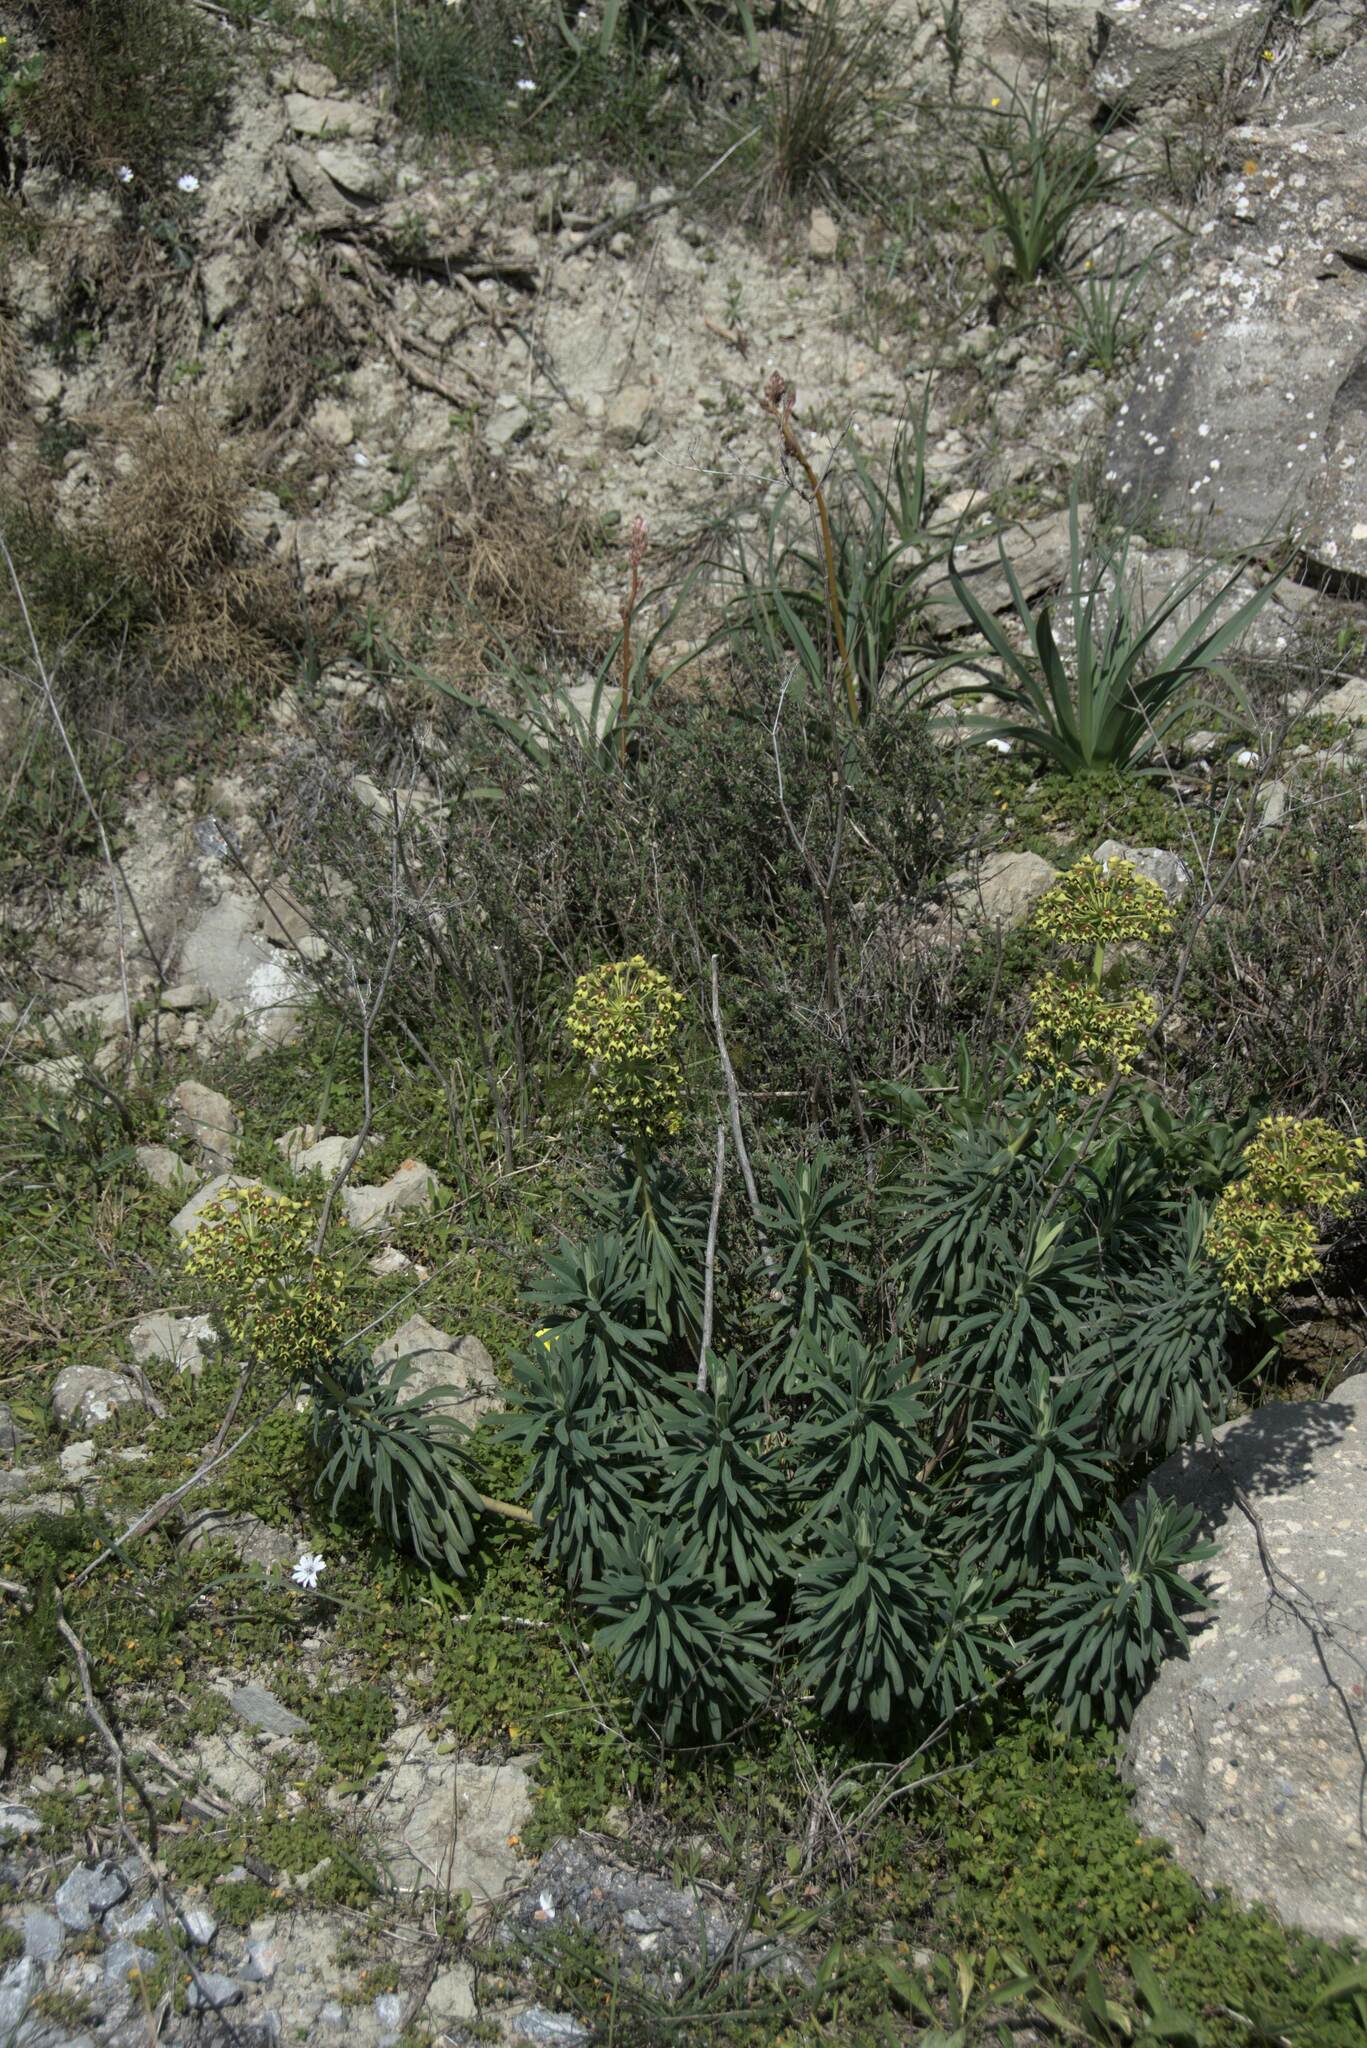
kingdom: Plantae
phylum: Tracheophyta
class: Magnoliopsida
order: Malpighiales
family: Euphorbiaceae
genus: Euphorbia
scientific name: Euphorbia characias
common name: Mediterranean spurge
